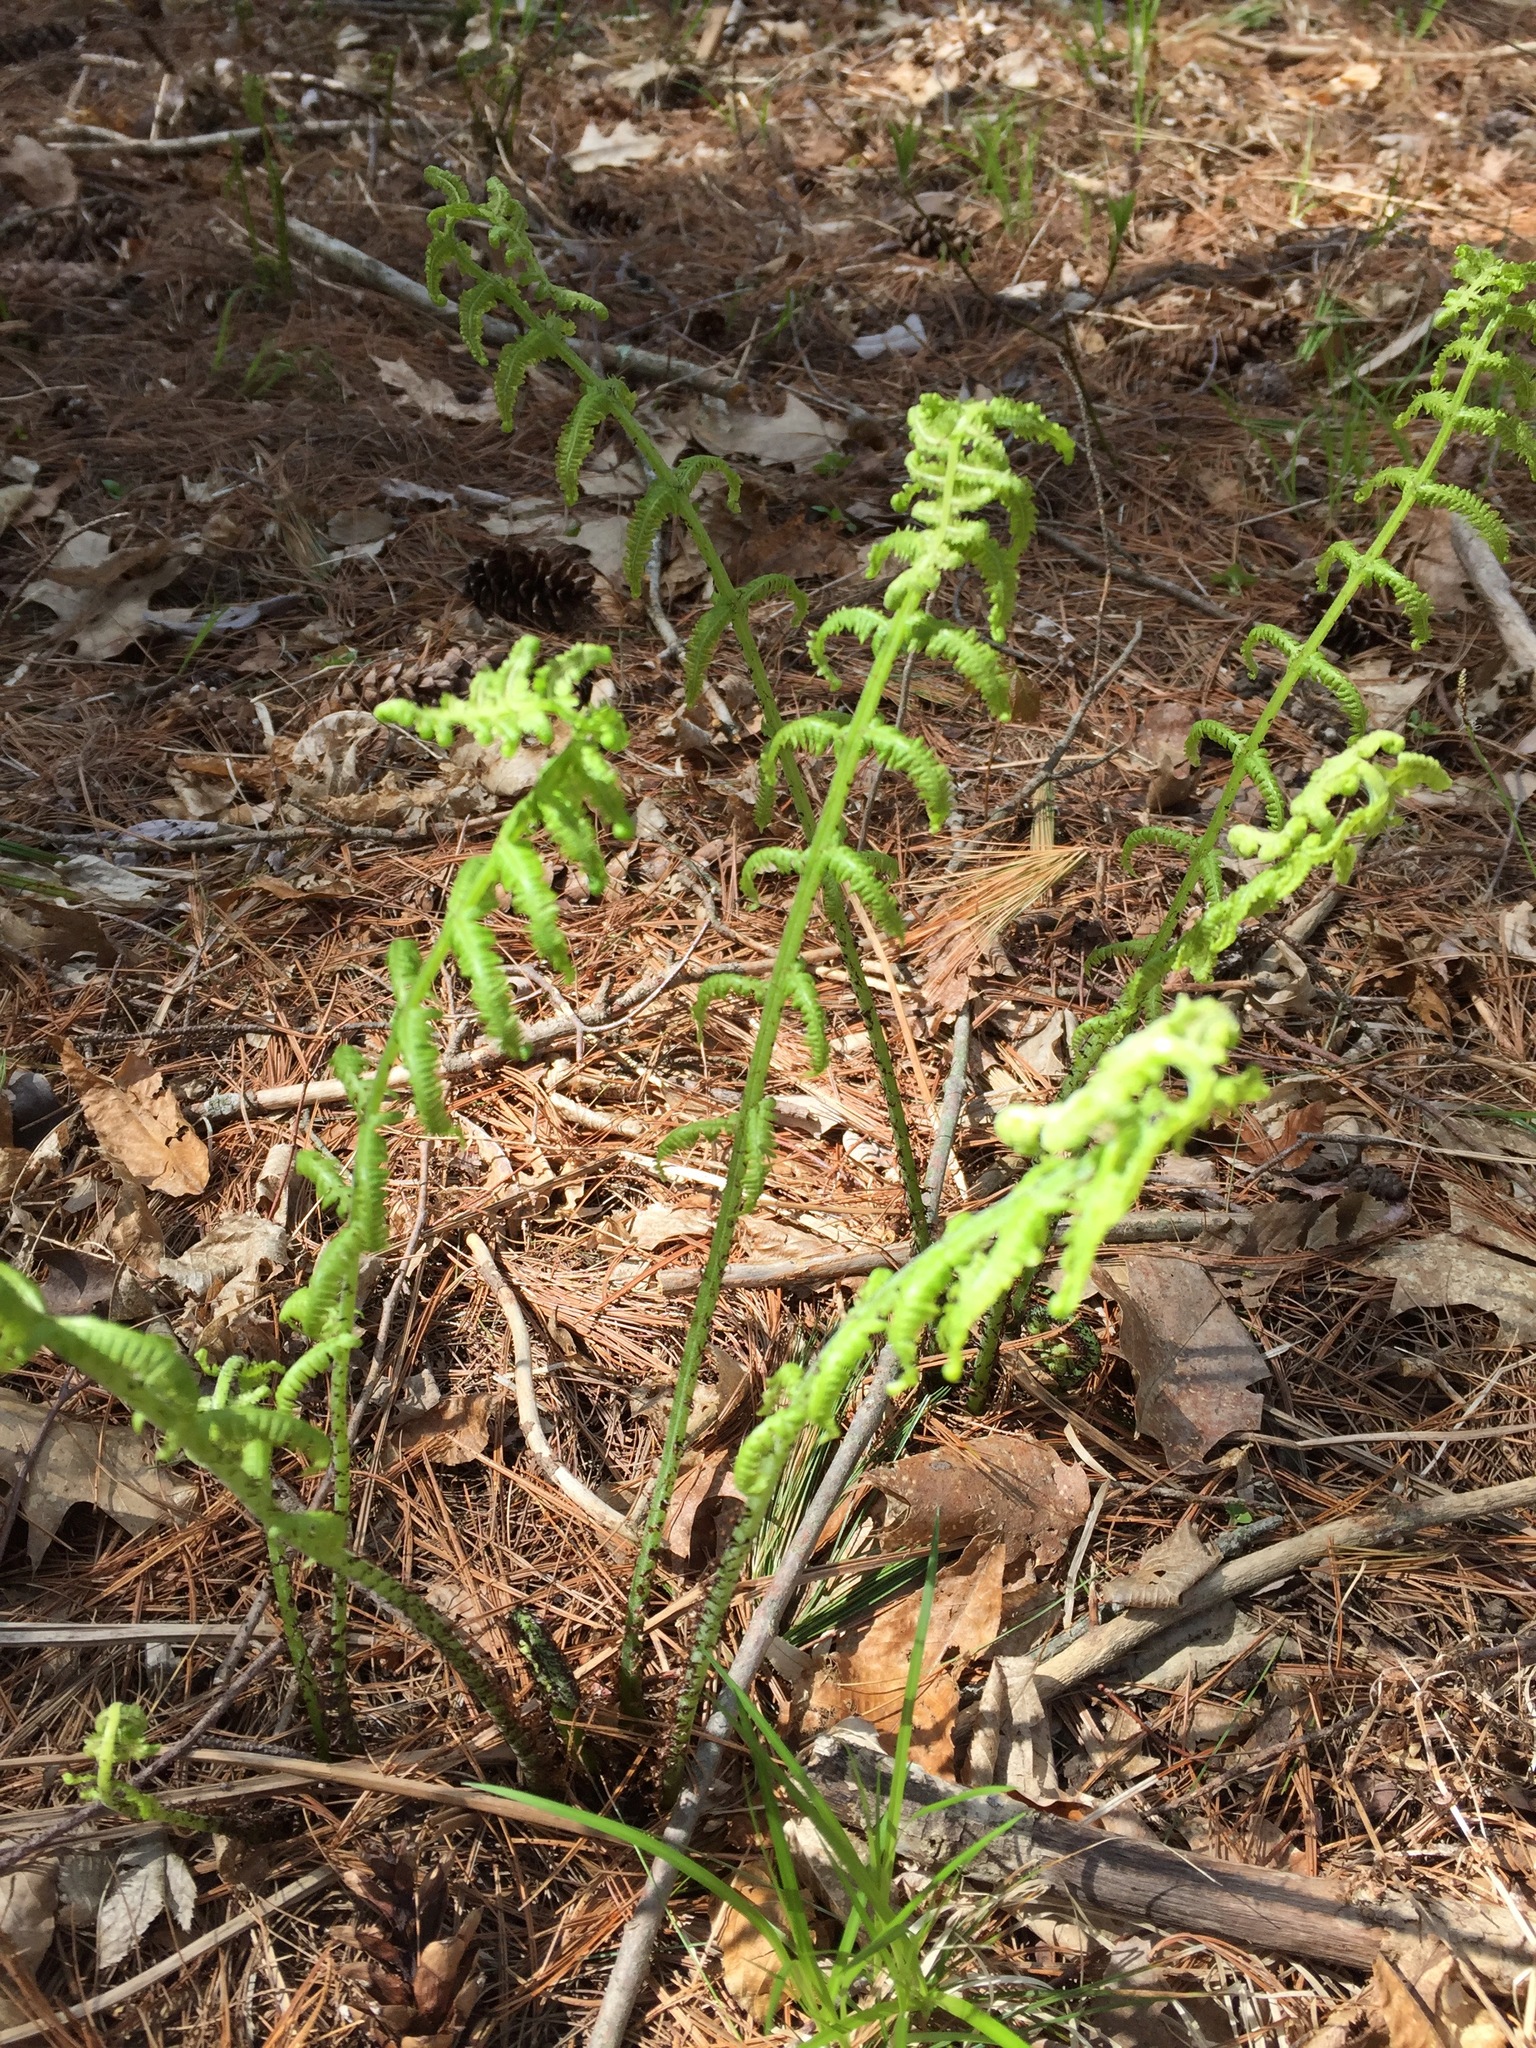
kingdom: Plantae
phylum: Tracheophyta
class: Polypodiopsida
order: Polypodiales
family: Athyriaceae
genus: Athyrium
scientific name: Athyrium angustum
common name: Northern lady fern
